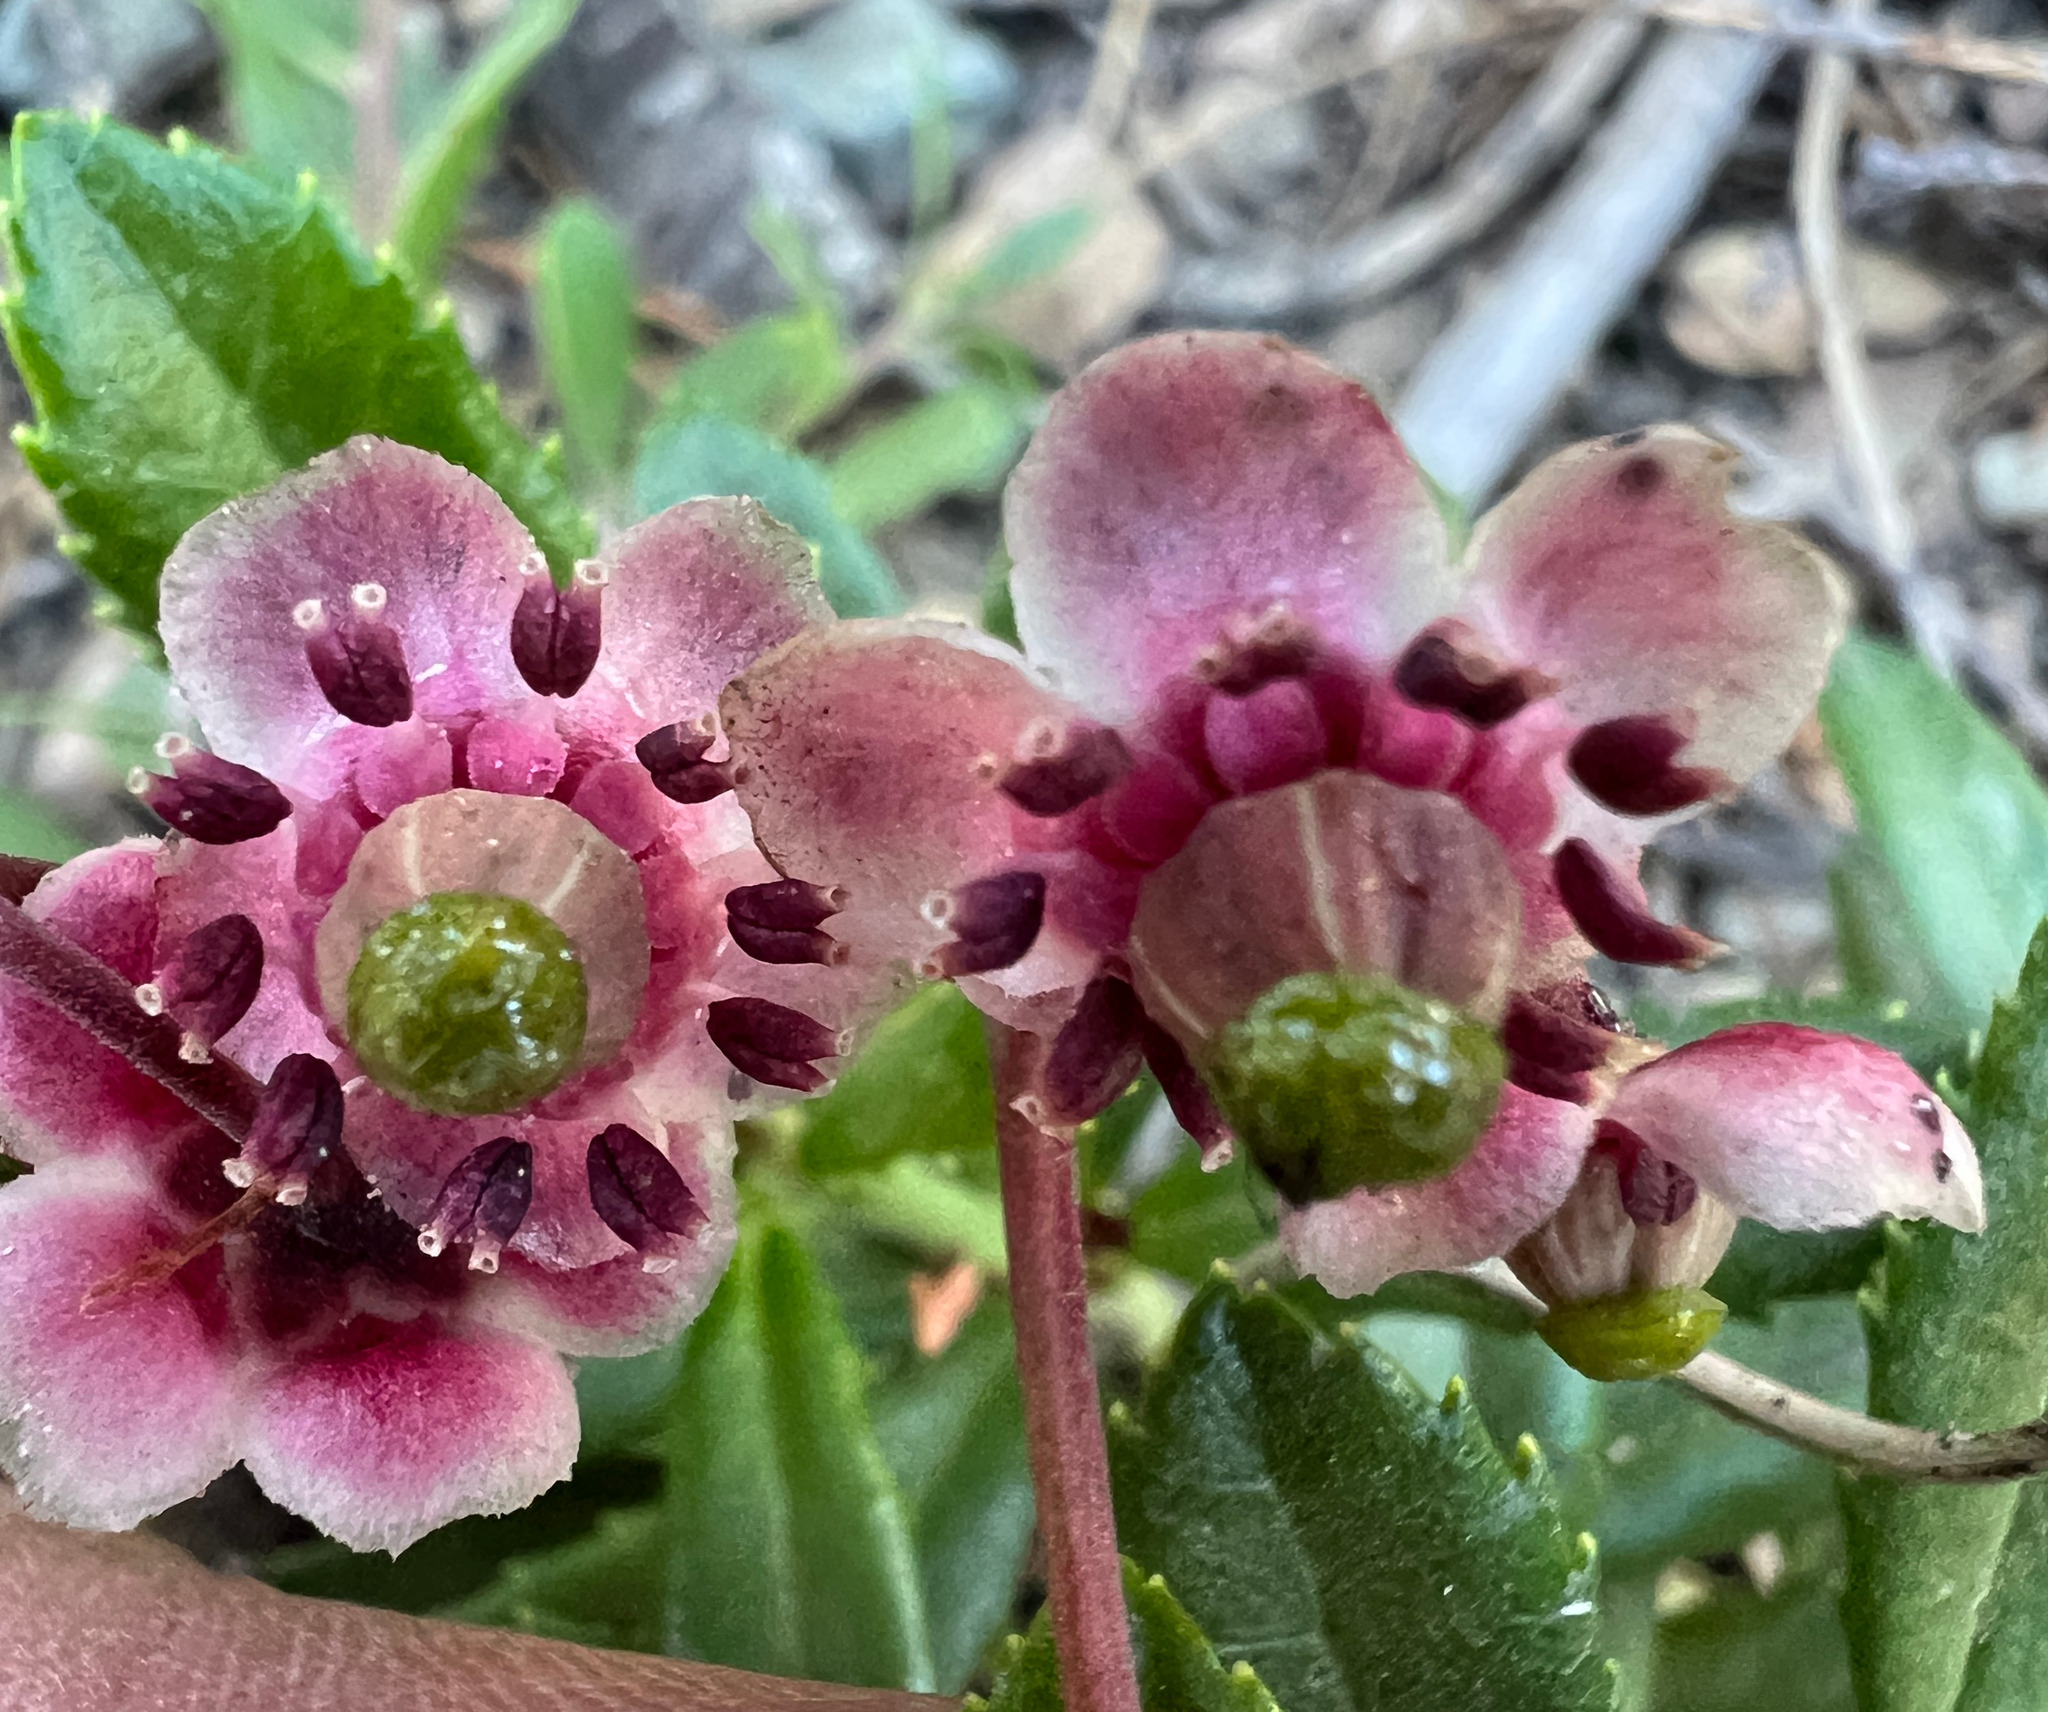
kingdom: Plantae
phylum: Tracheophyta
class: Magnoliopsida
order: Ericales
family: Ericaceae
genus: Chimaphila
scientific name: Chimaphila umbellata
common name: Pipsissewa
